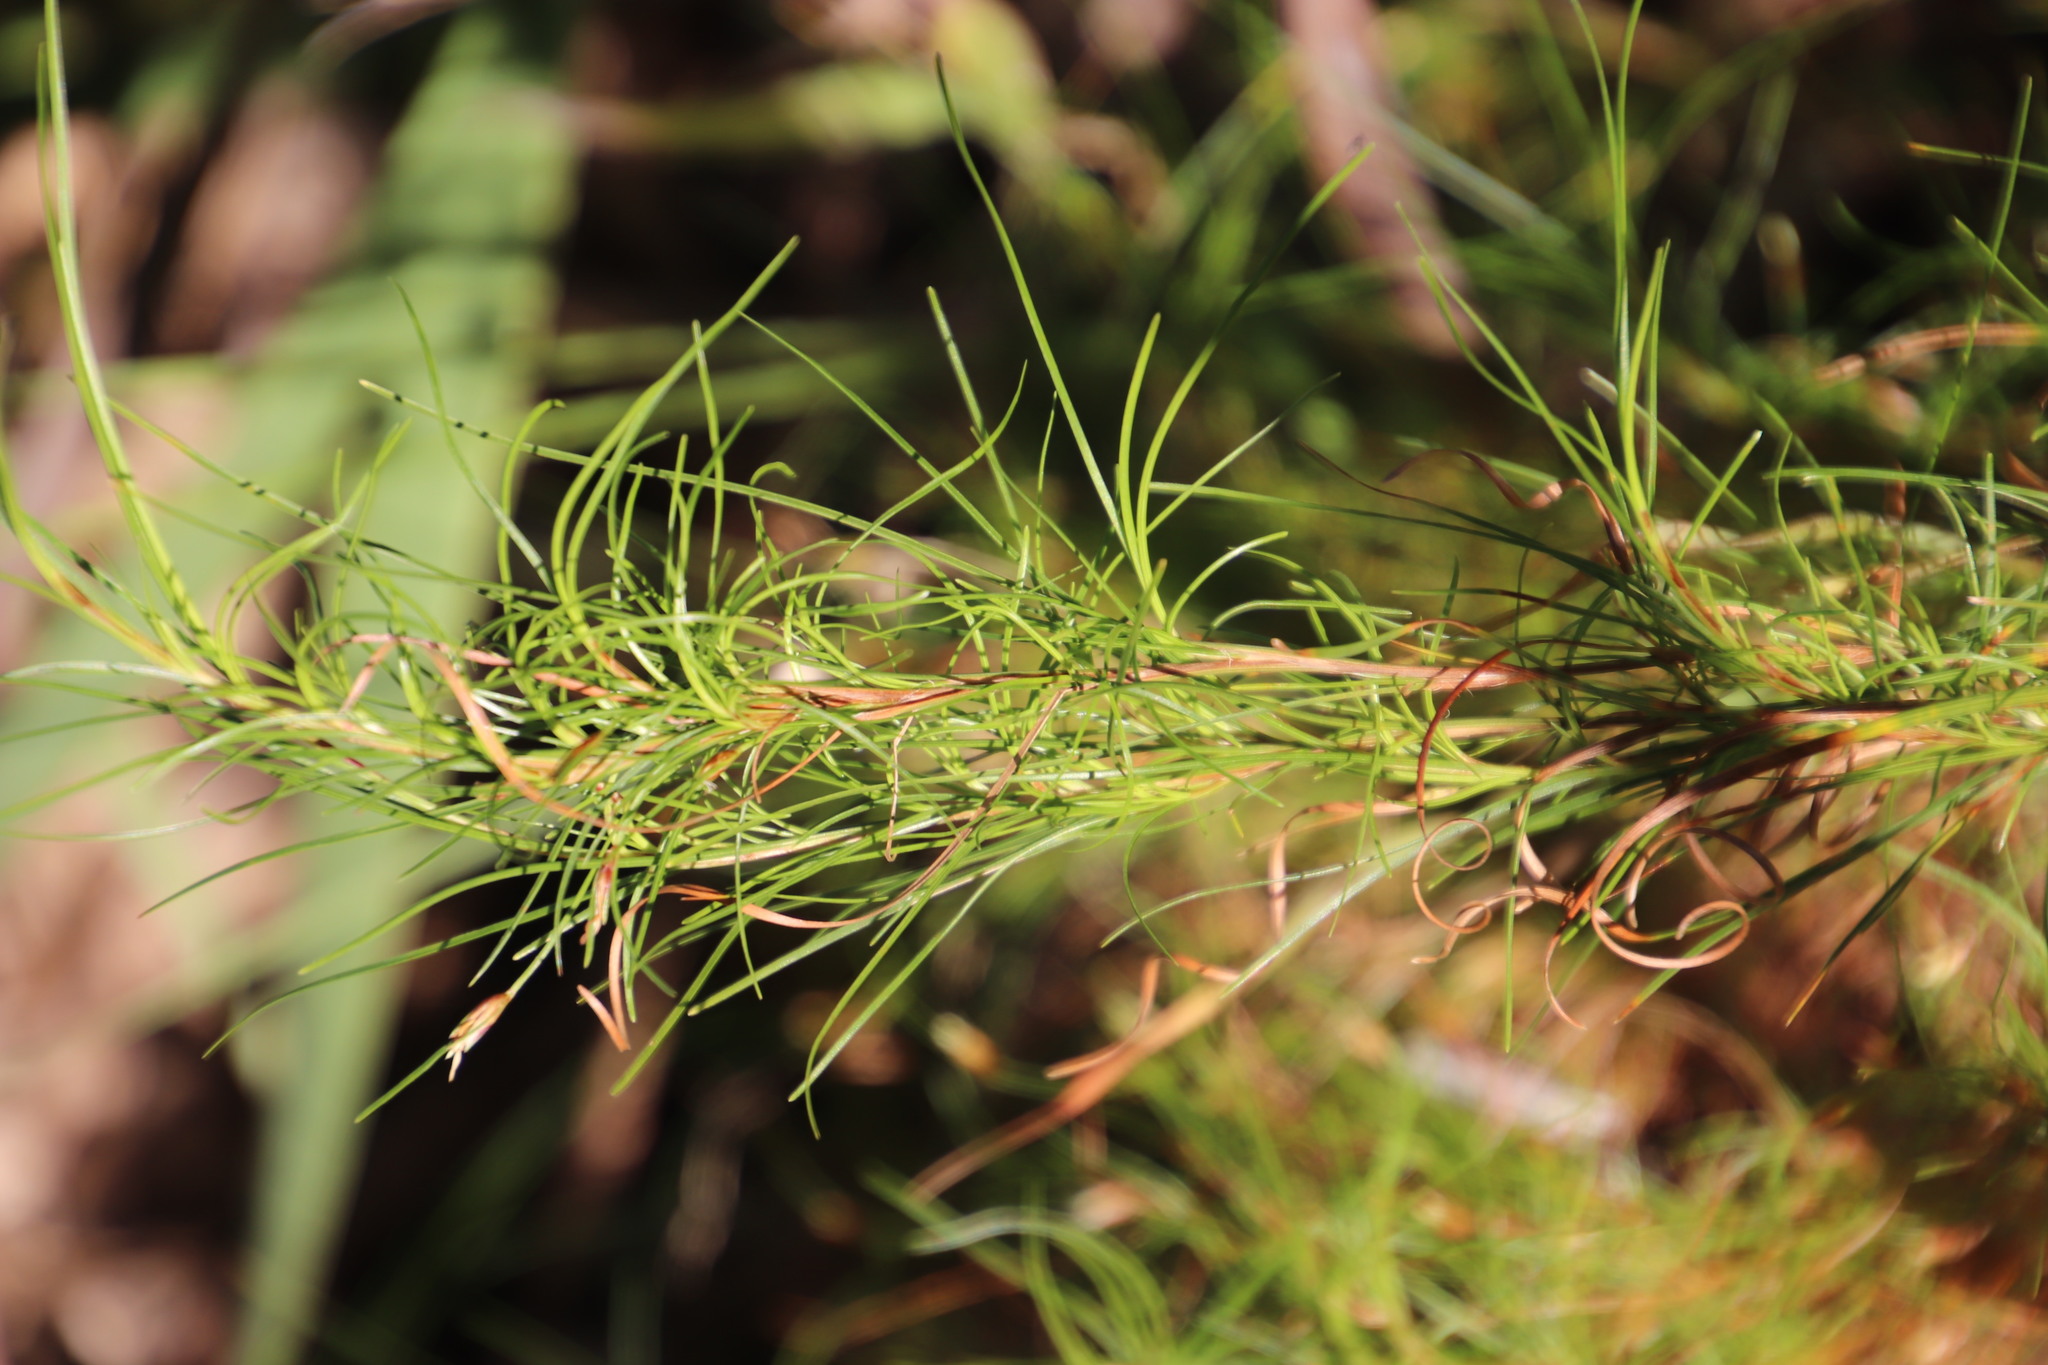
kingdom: Plantae
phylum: Tracheophyta
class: Liliopsida
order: Poales
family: Cyperaceae
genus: Ficinia
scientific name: Ficinia trichodes
